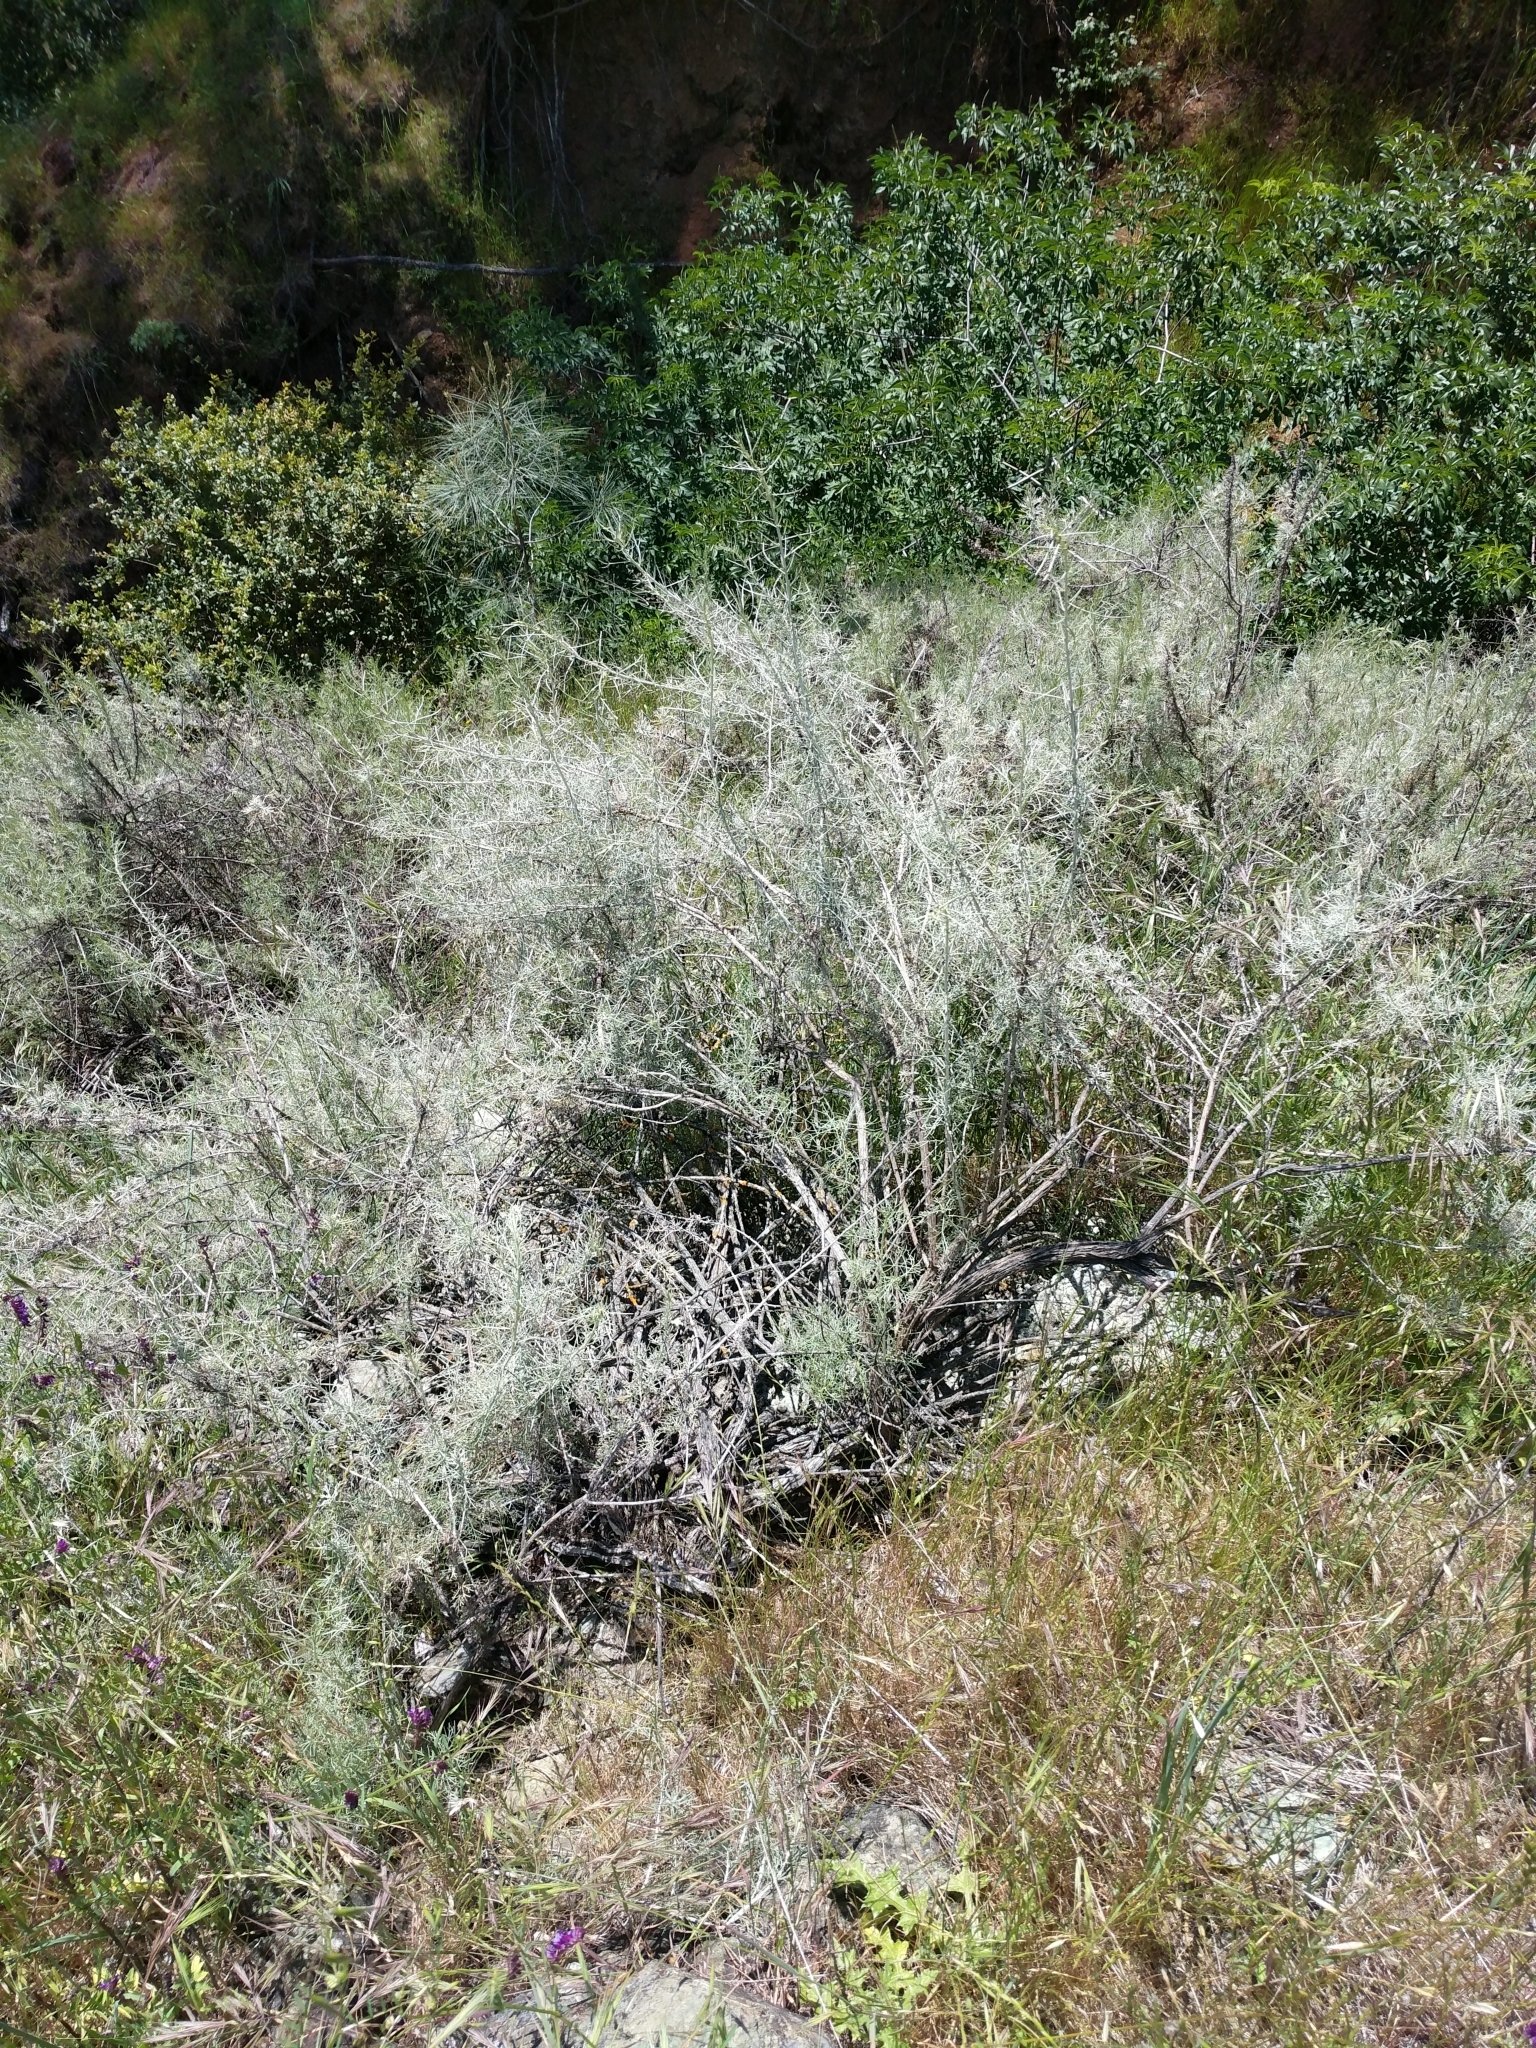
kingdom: Plantae
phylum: Tracheophyta
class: Magnoliopsida
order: Asterales
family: Asteraceae
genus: Artemisia
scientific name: Artemisia californica
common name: California sagebrush
